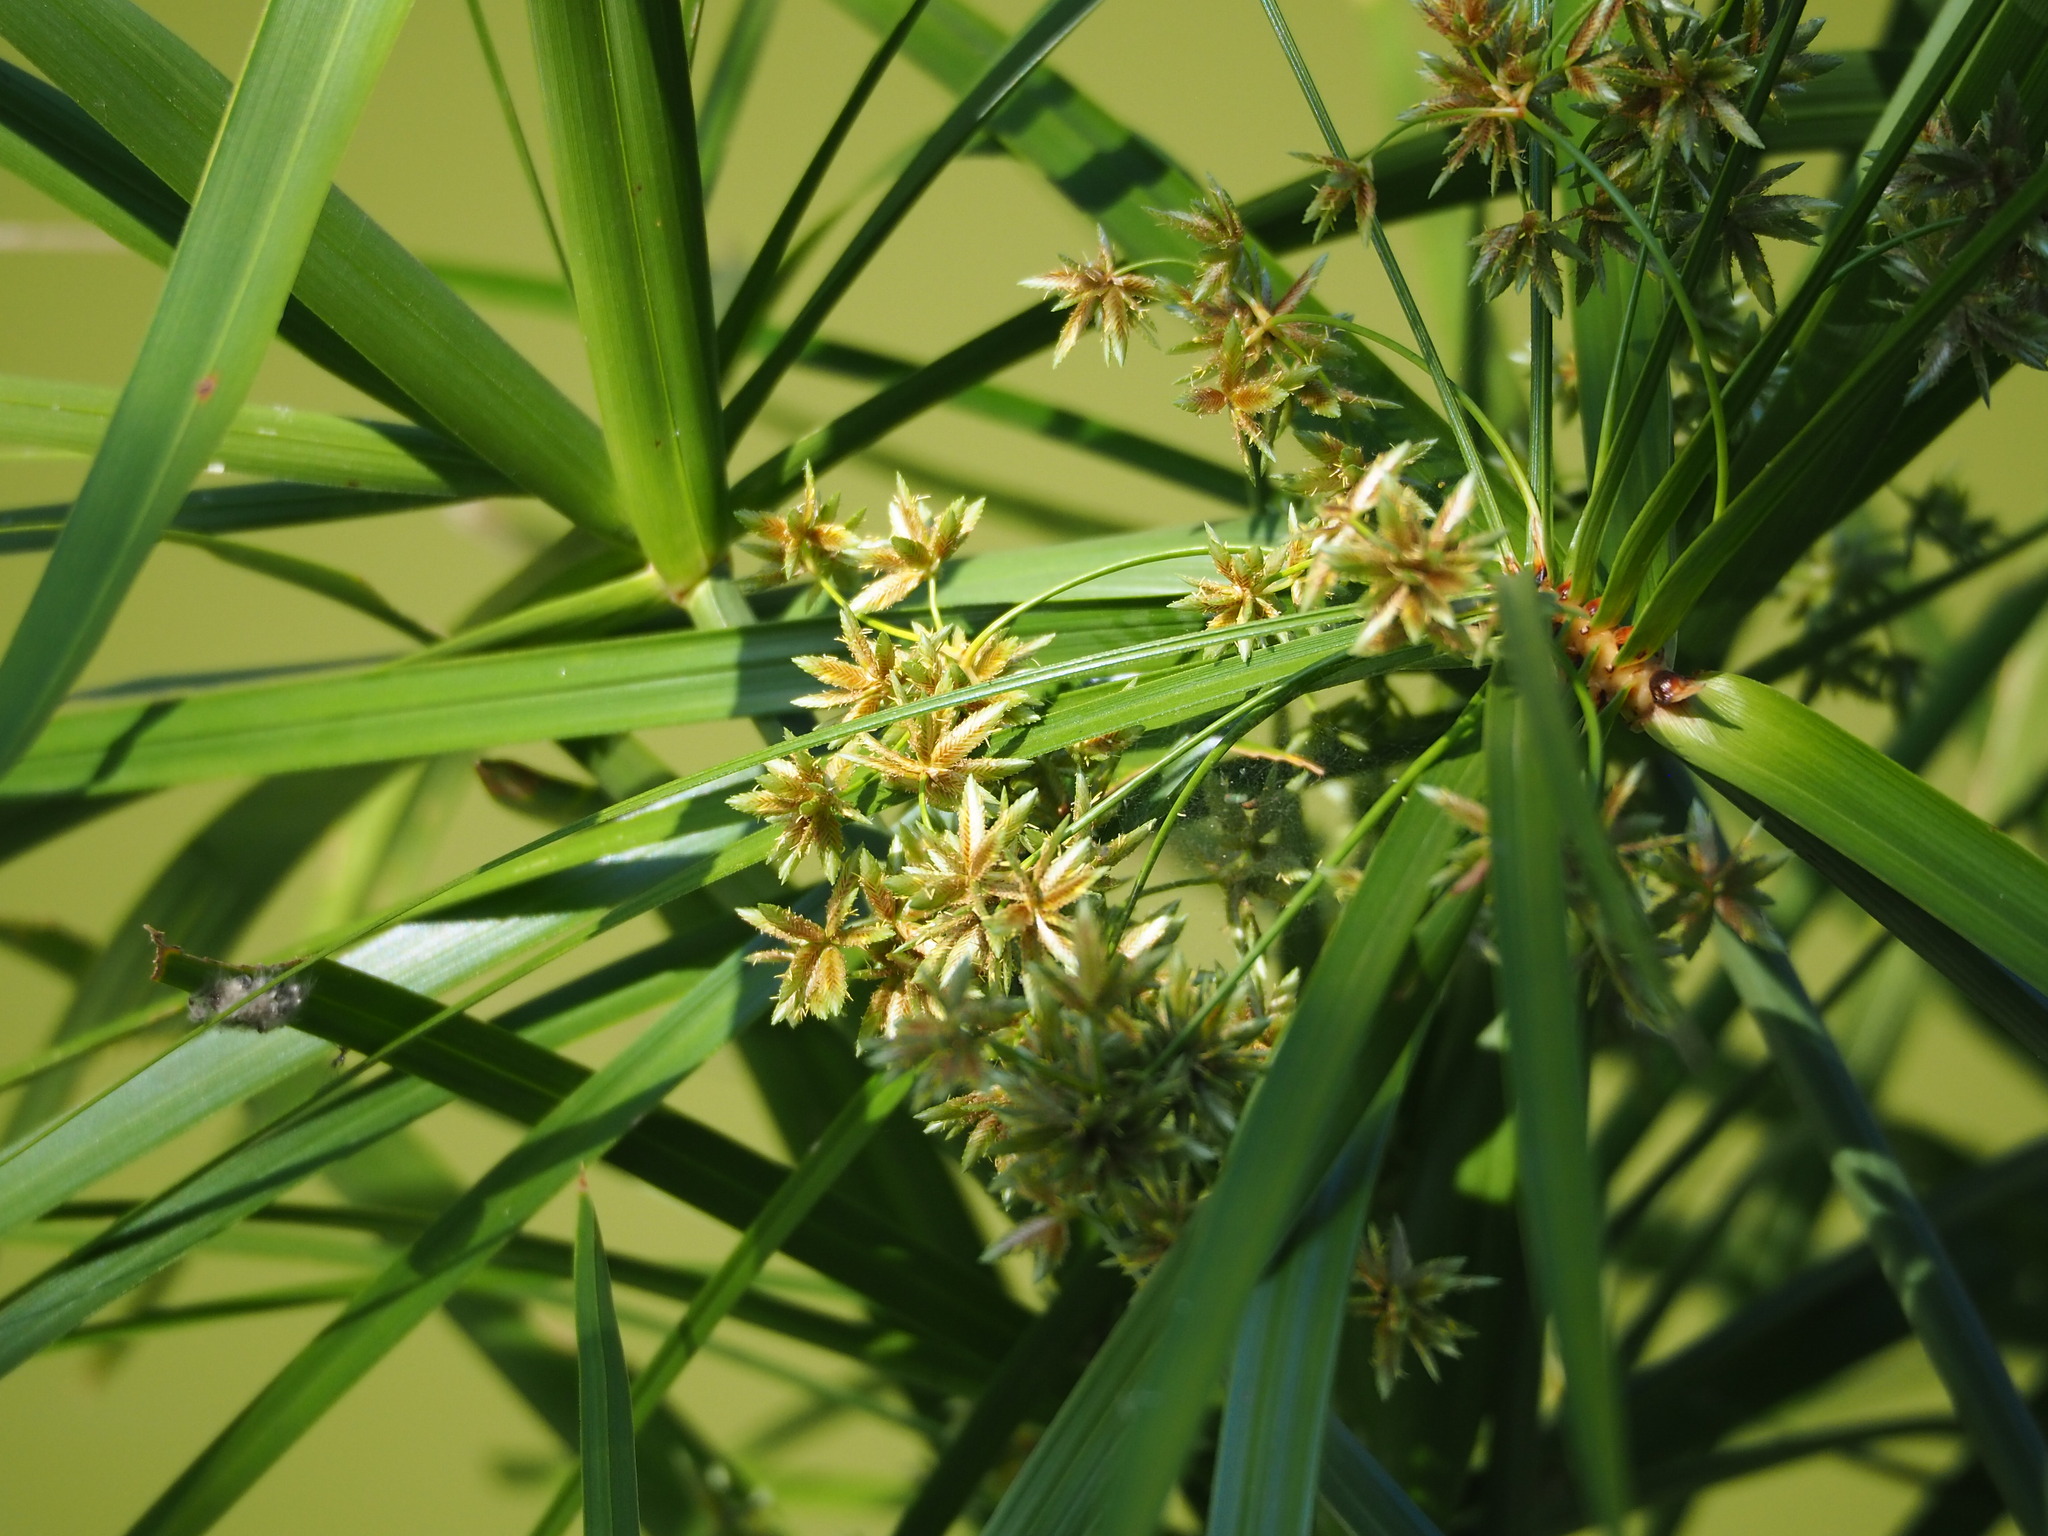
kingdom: Plantae
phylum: Tracheophyta
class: Liliopsida
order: Poales
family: Cyperaceae
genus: Cyperus
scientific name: Cyperus alternifolius
